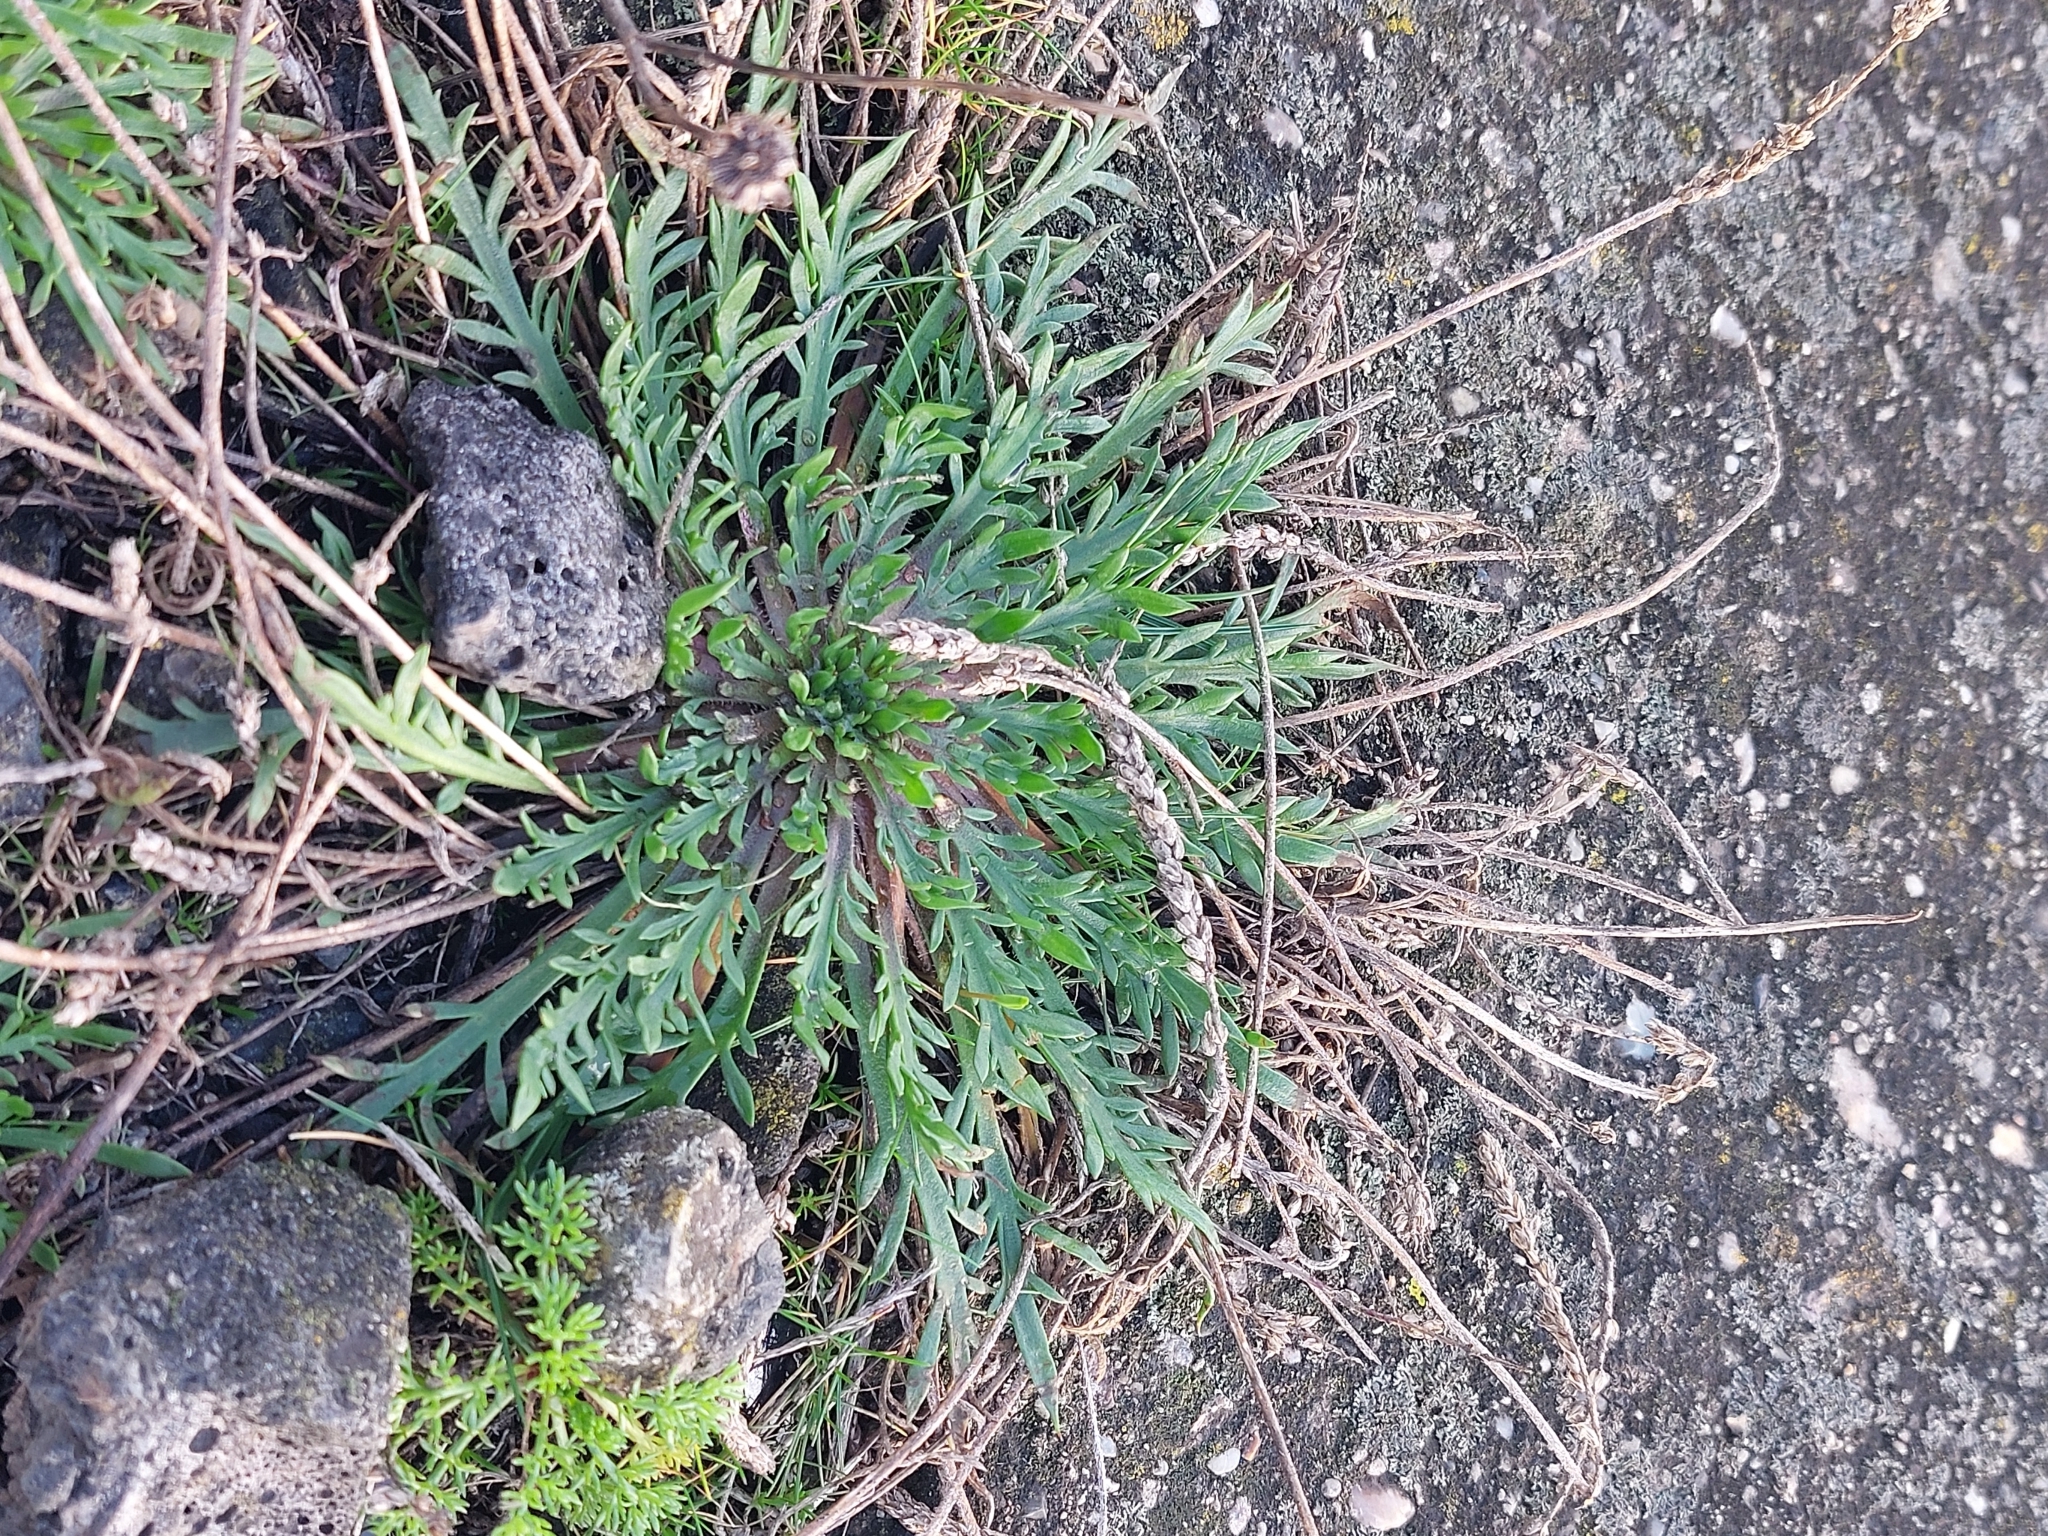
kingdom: Plantae
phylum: Tracheophyta
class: Magnoliopsida
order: Lamiales
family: Plantaginaceae
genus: Plantago
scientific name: Plantago coronopus
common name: Buck's-horn plantain
